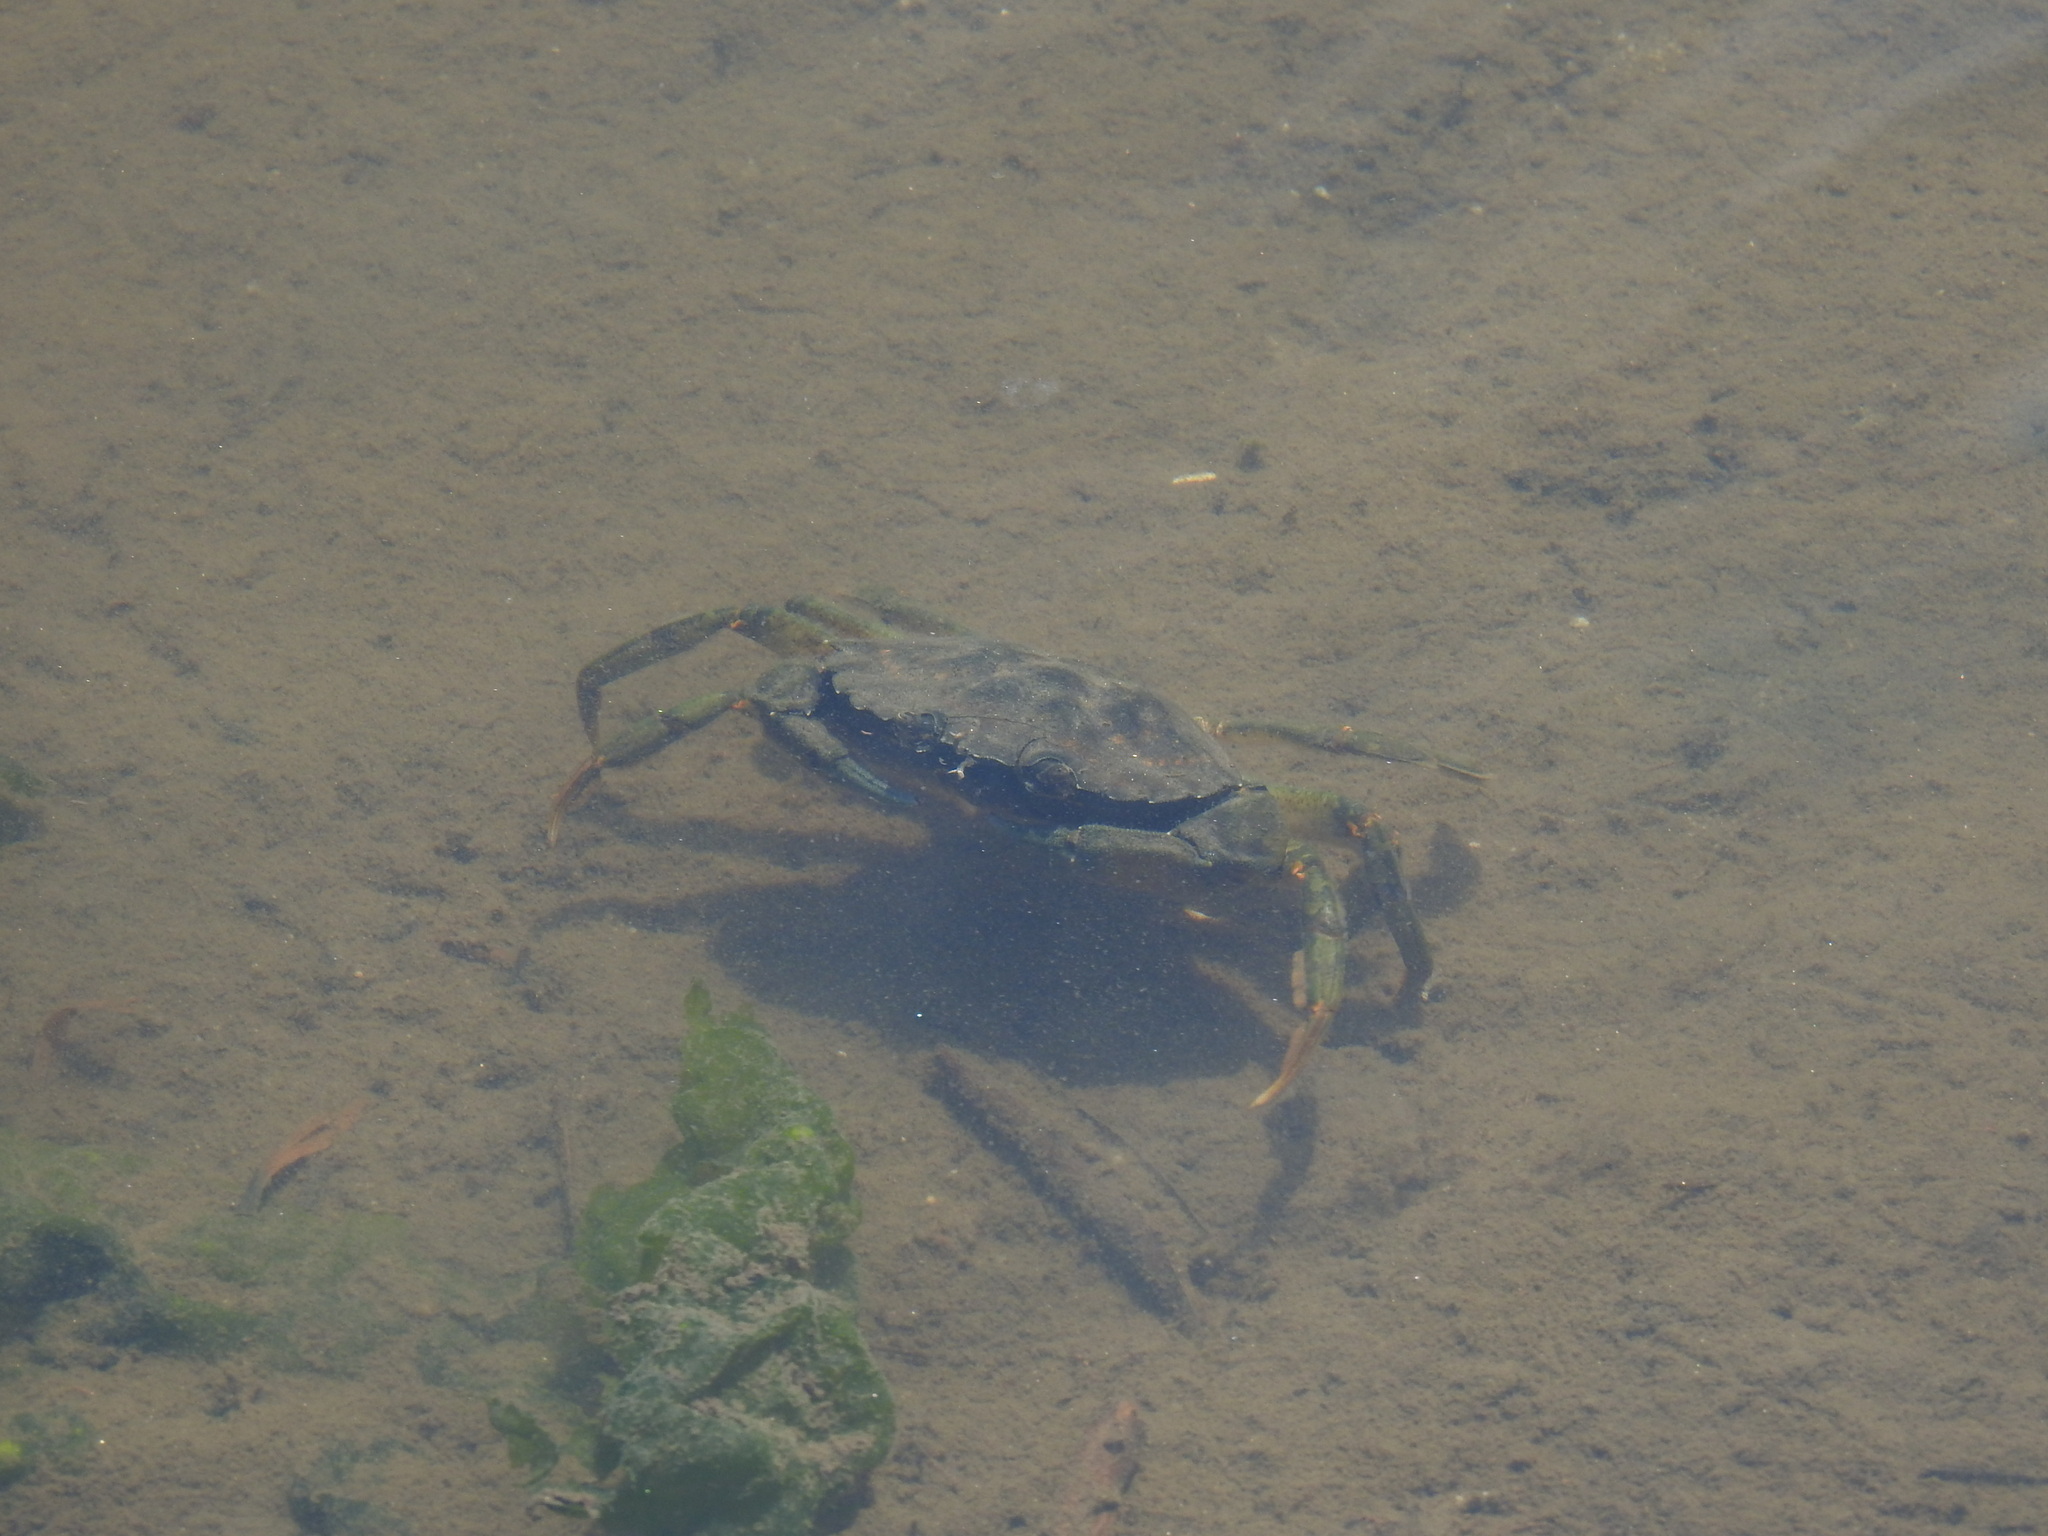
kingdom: Animalia
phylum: Arthropoda
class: Malacostraca
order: Decapoda
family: Carcinidae
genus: Carcinus
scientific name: Carcinus maenas
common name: European green crab
